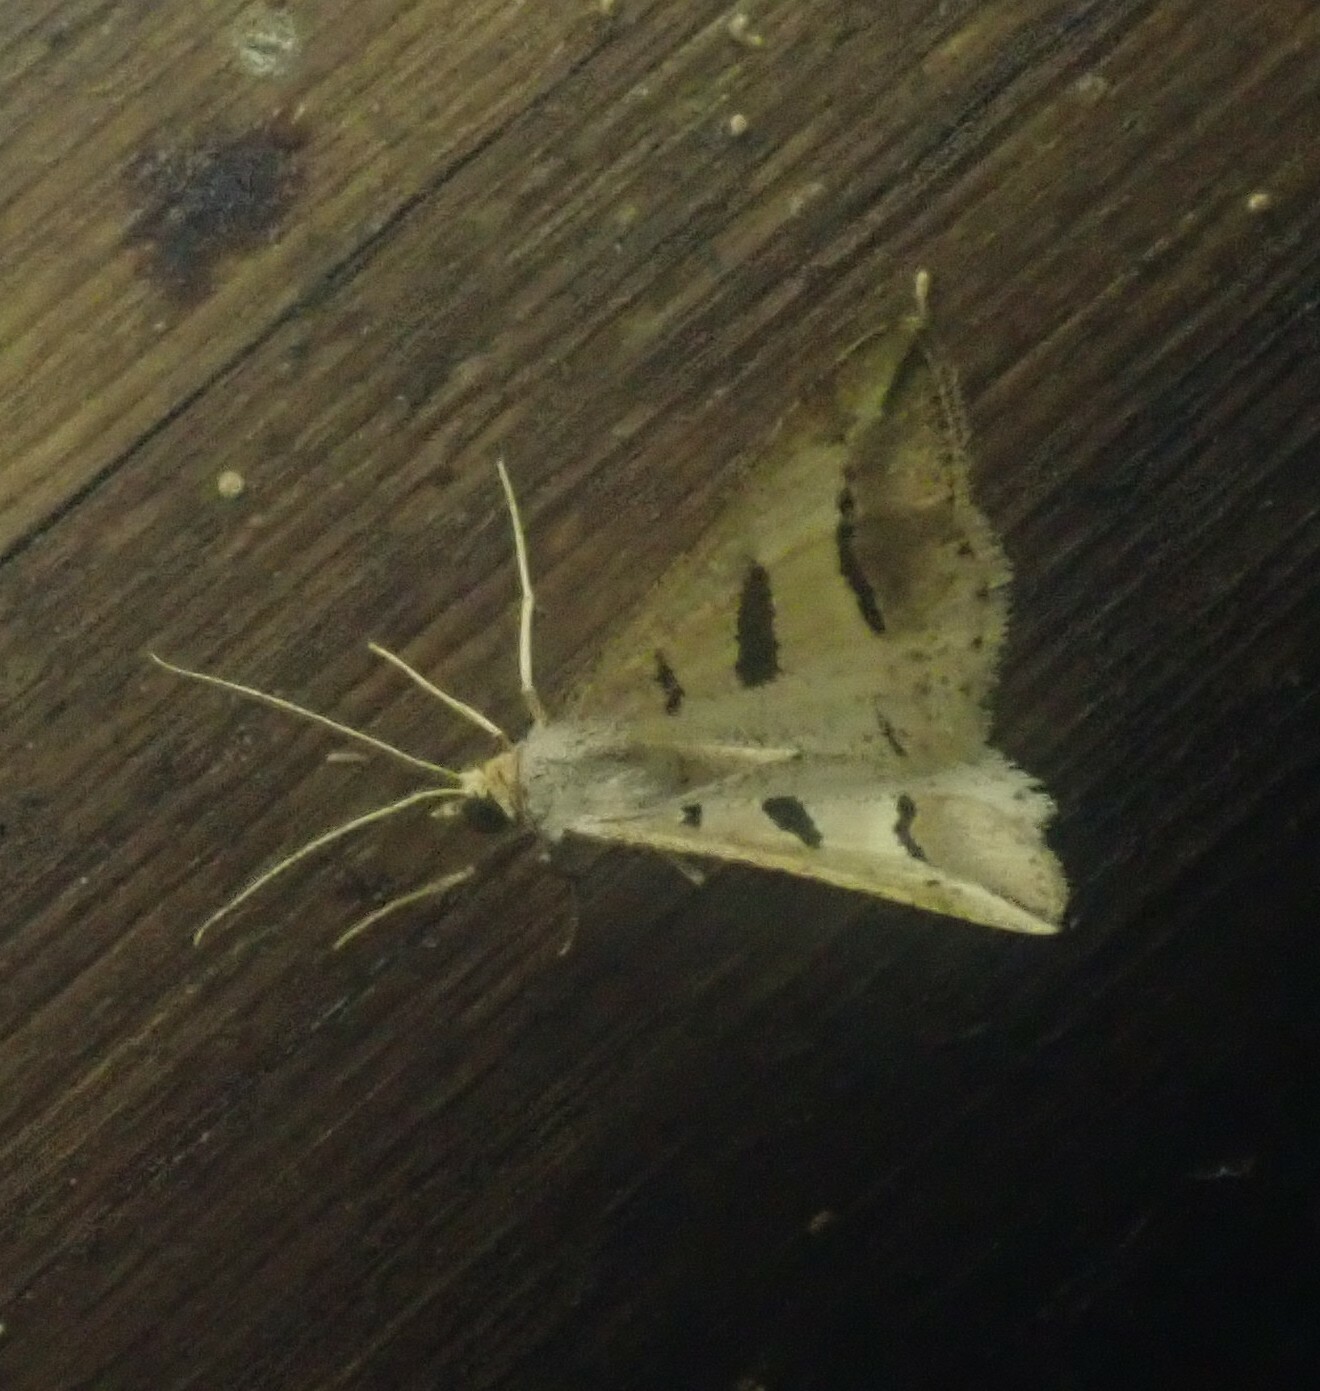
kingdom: Animalia
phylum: Arthropoda
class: Insecta
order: Lepidoptera
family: Geometridae
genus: Chiasmia
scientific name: Chiasmia subcurvaria
